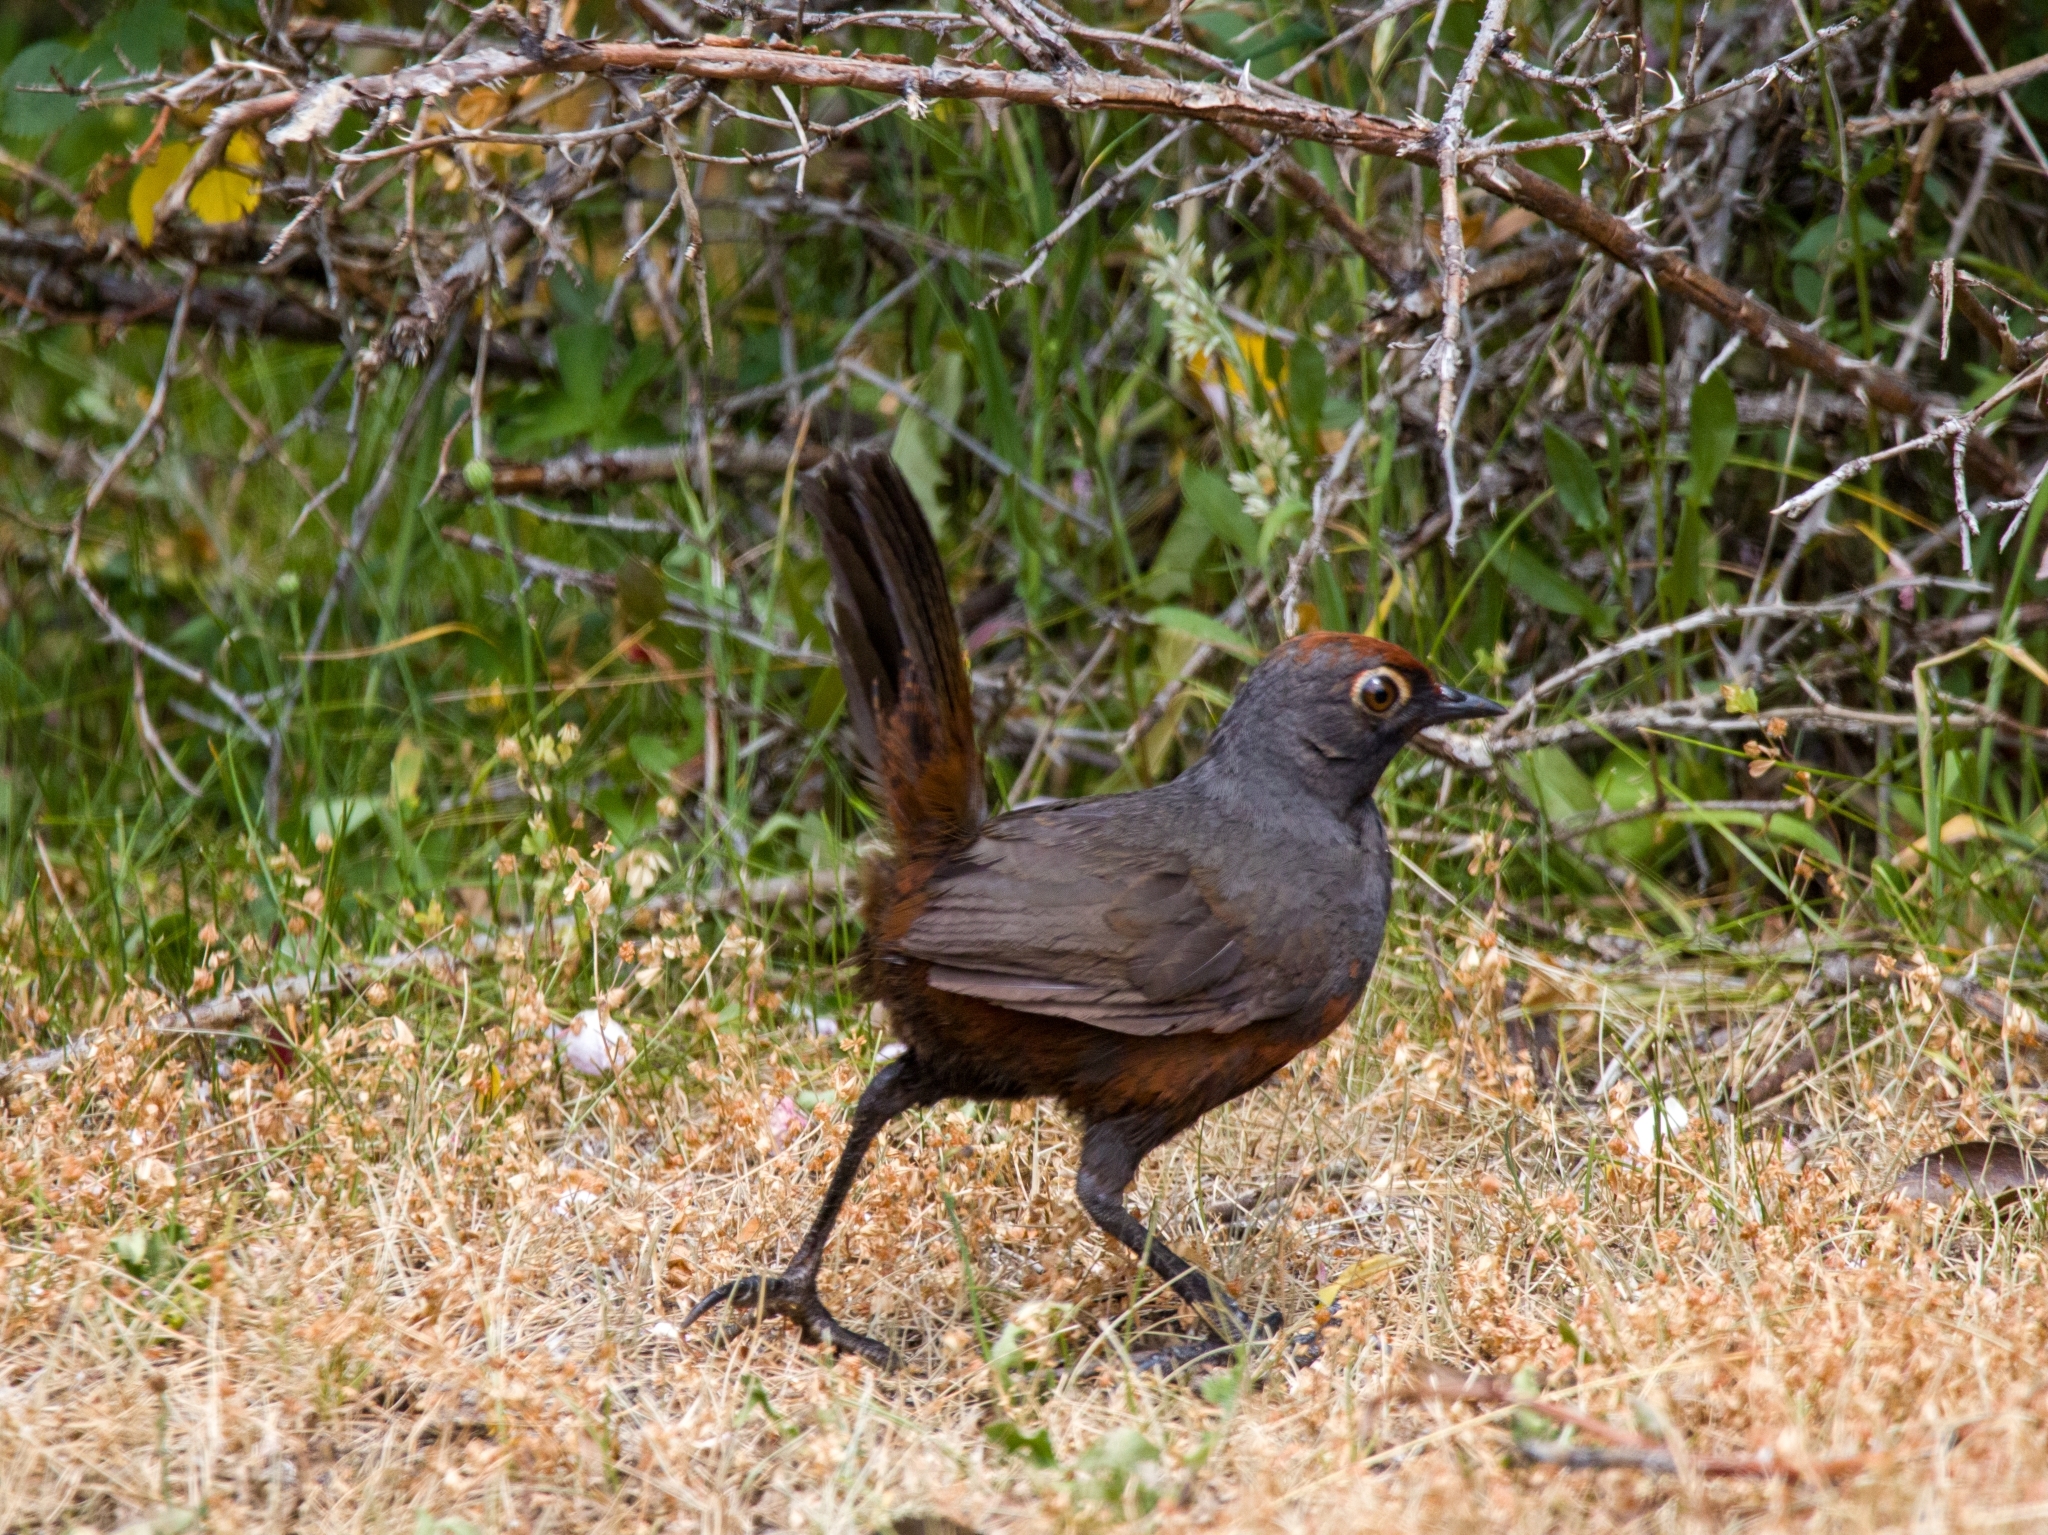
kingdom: Animalia
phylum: Chordata
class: Aves
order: Passeriformes
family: Rhinocryptidae
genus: Pteroptochos
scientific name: Pteroptochos tarnii
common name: Black-throated huet-huet
